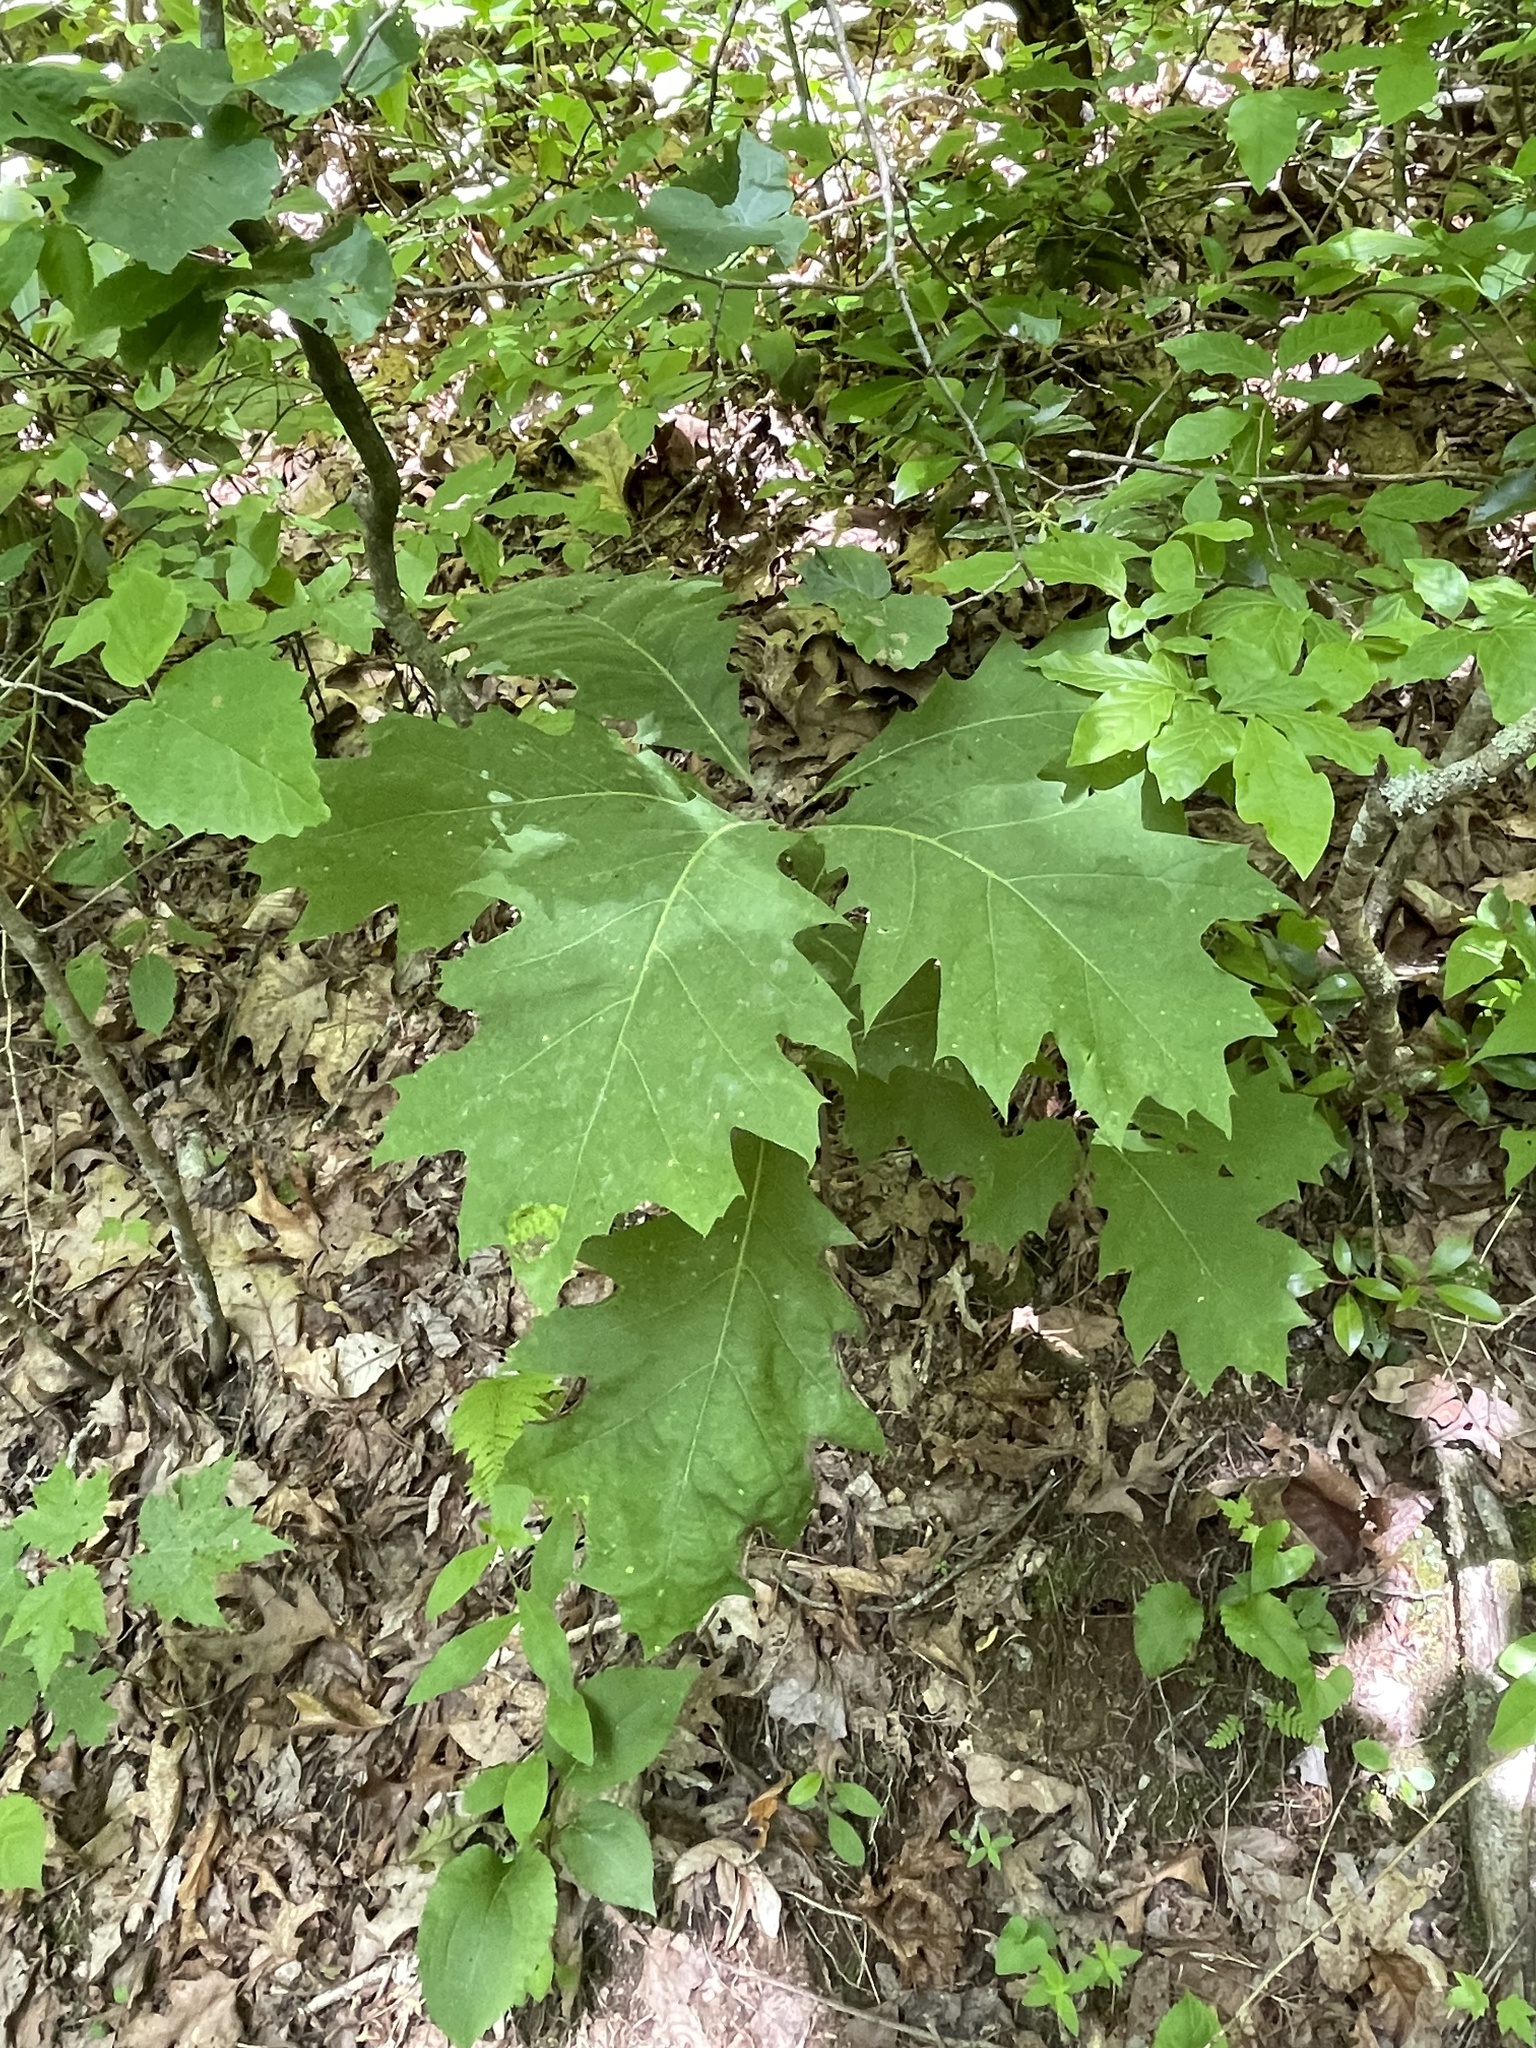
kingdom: Plantae
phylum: Tracheophyta
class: Magnoliopsida
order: Fagales
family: Fagaceae
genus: Quercus
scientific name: Quercus rubra
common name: Red oak
